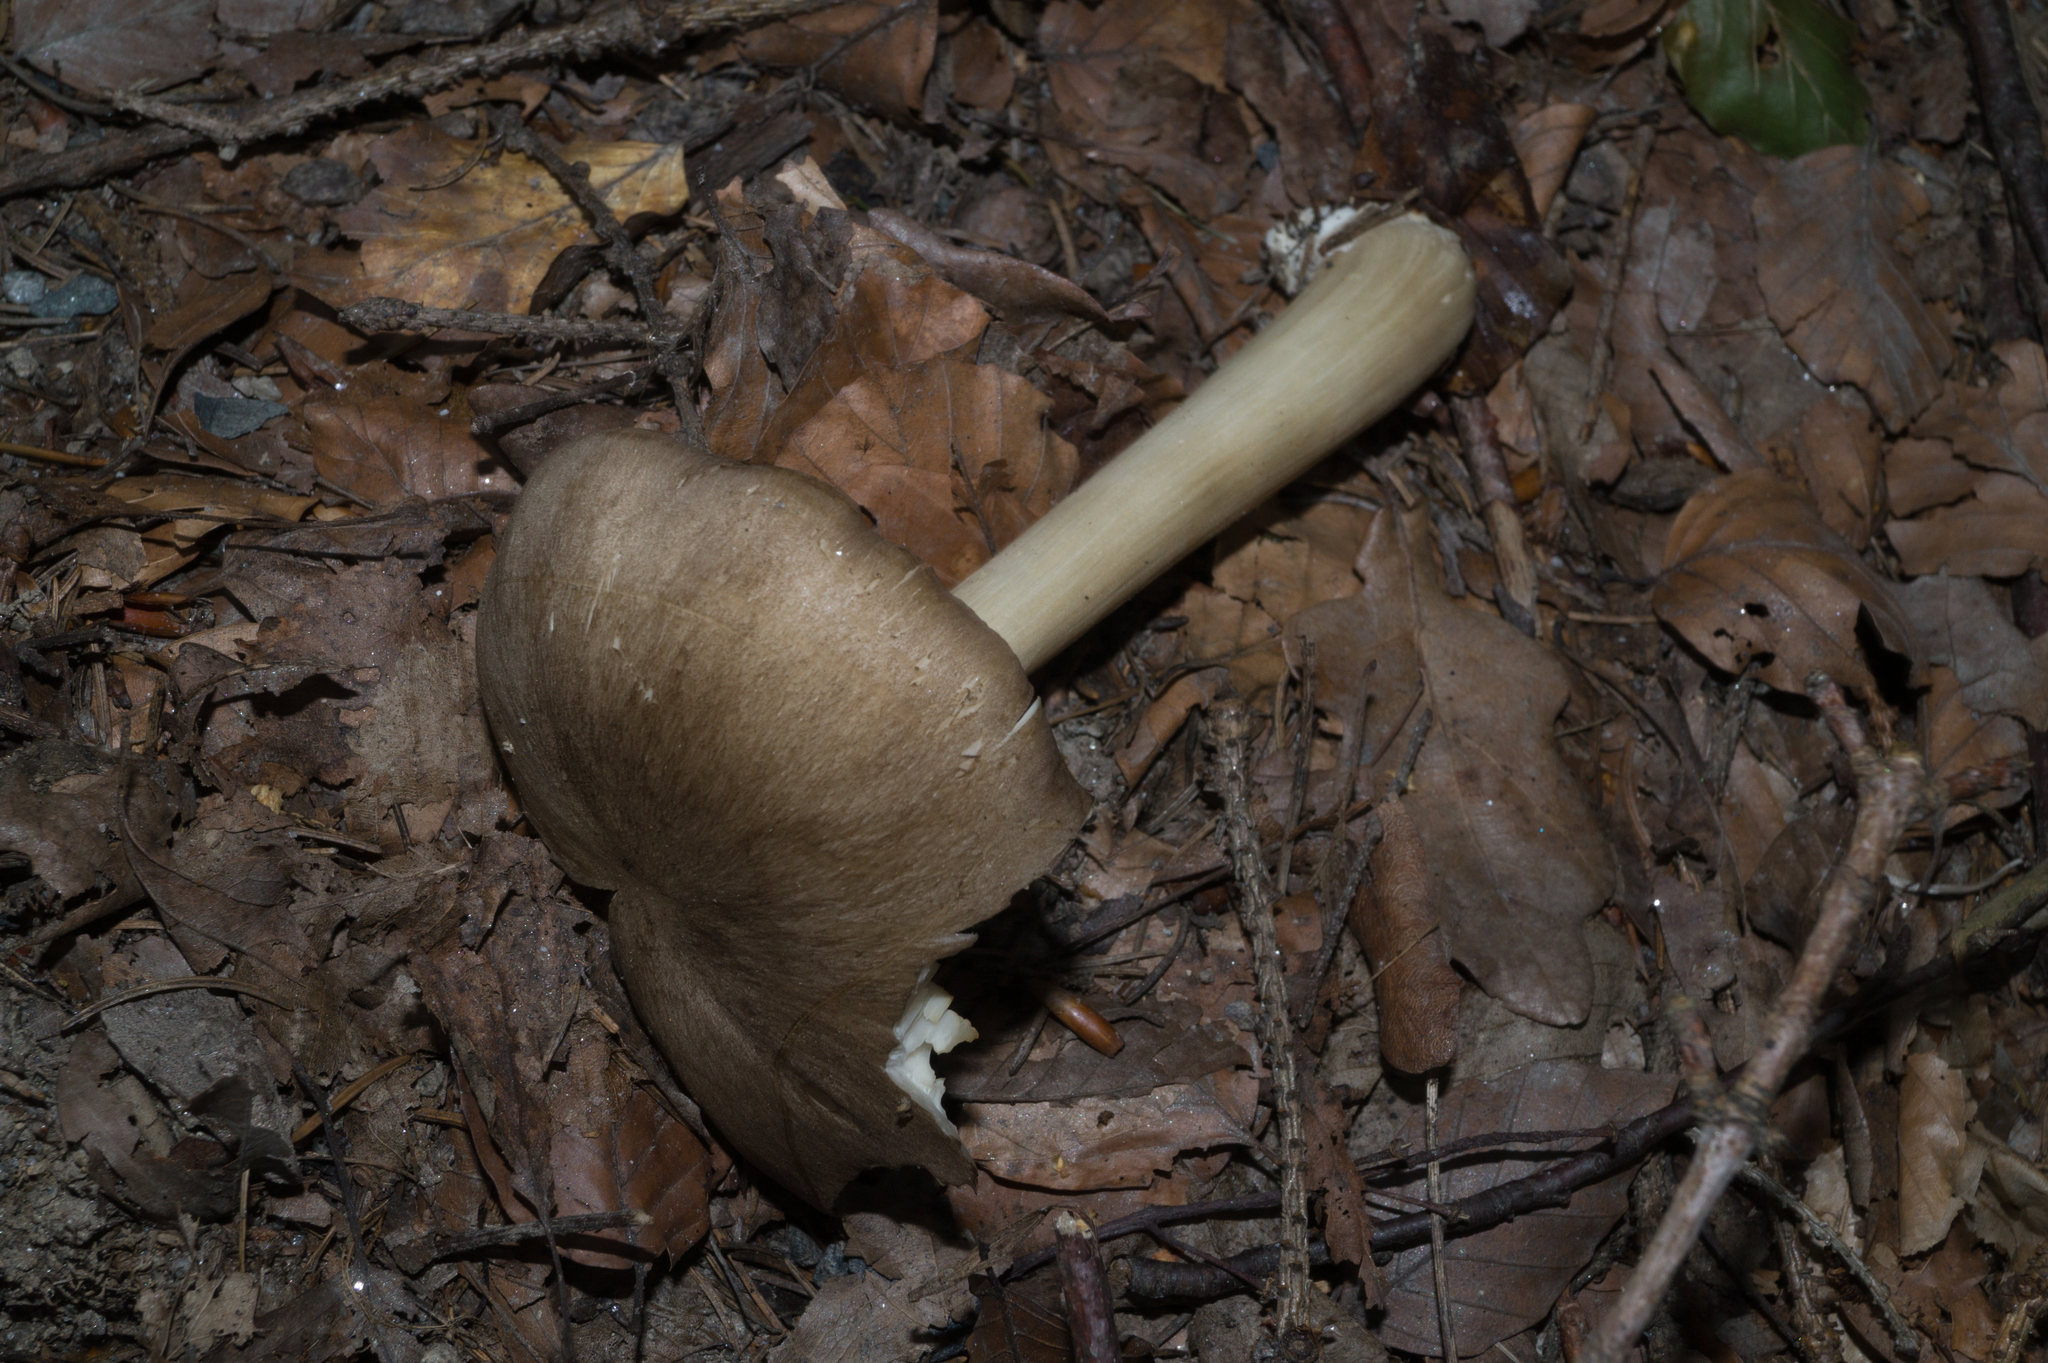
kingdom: Fungi
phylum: Basidiomycota
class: Agaricomycetes
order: Agaricales
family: Tricholomataceae
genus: Megacollybia
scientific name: Megacollybia platyphylla
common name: Whitelaced shank
